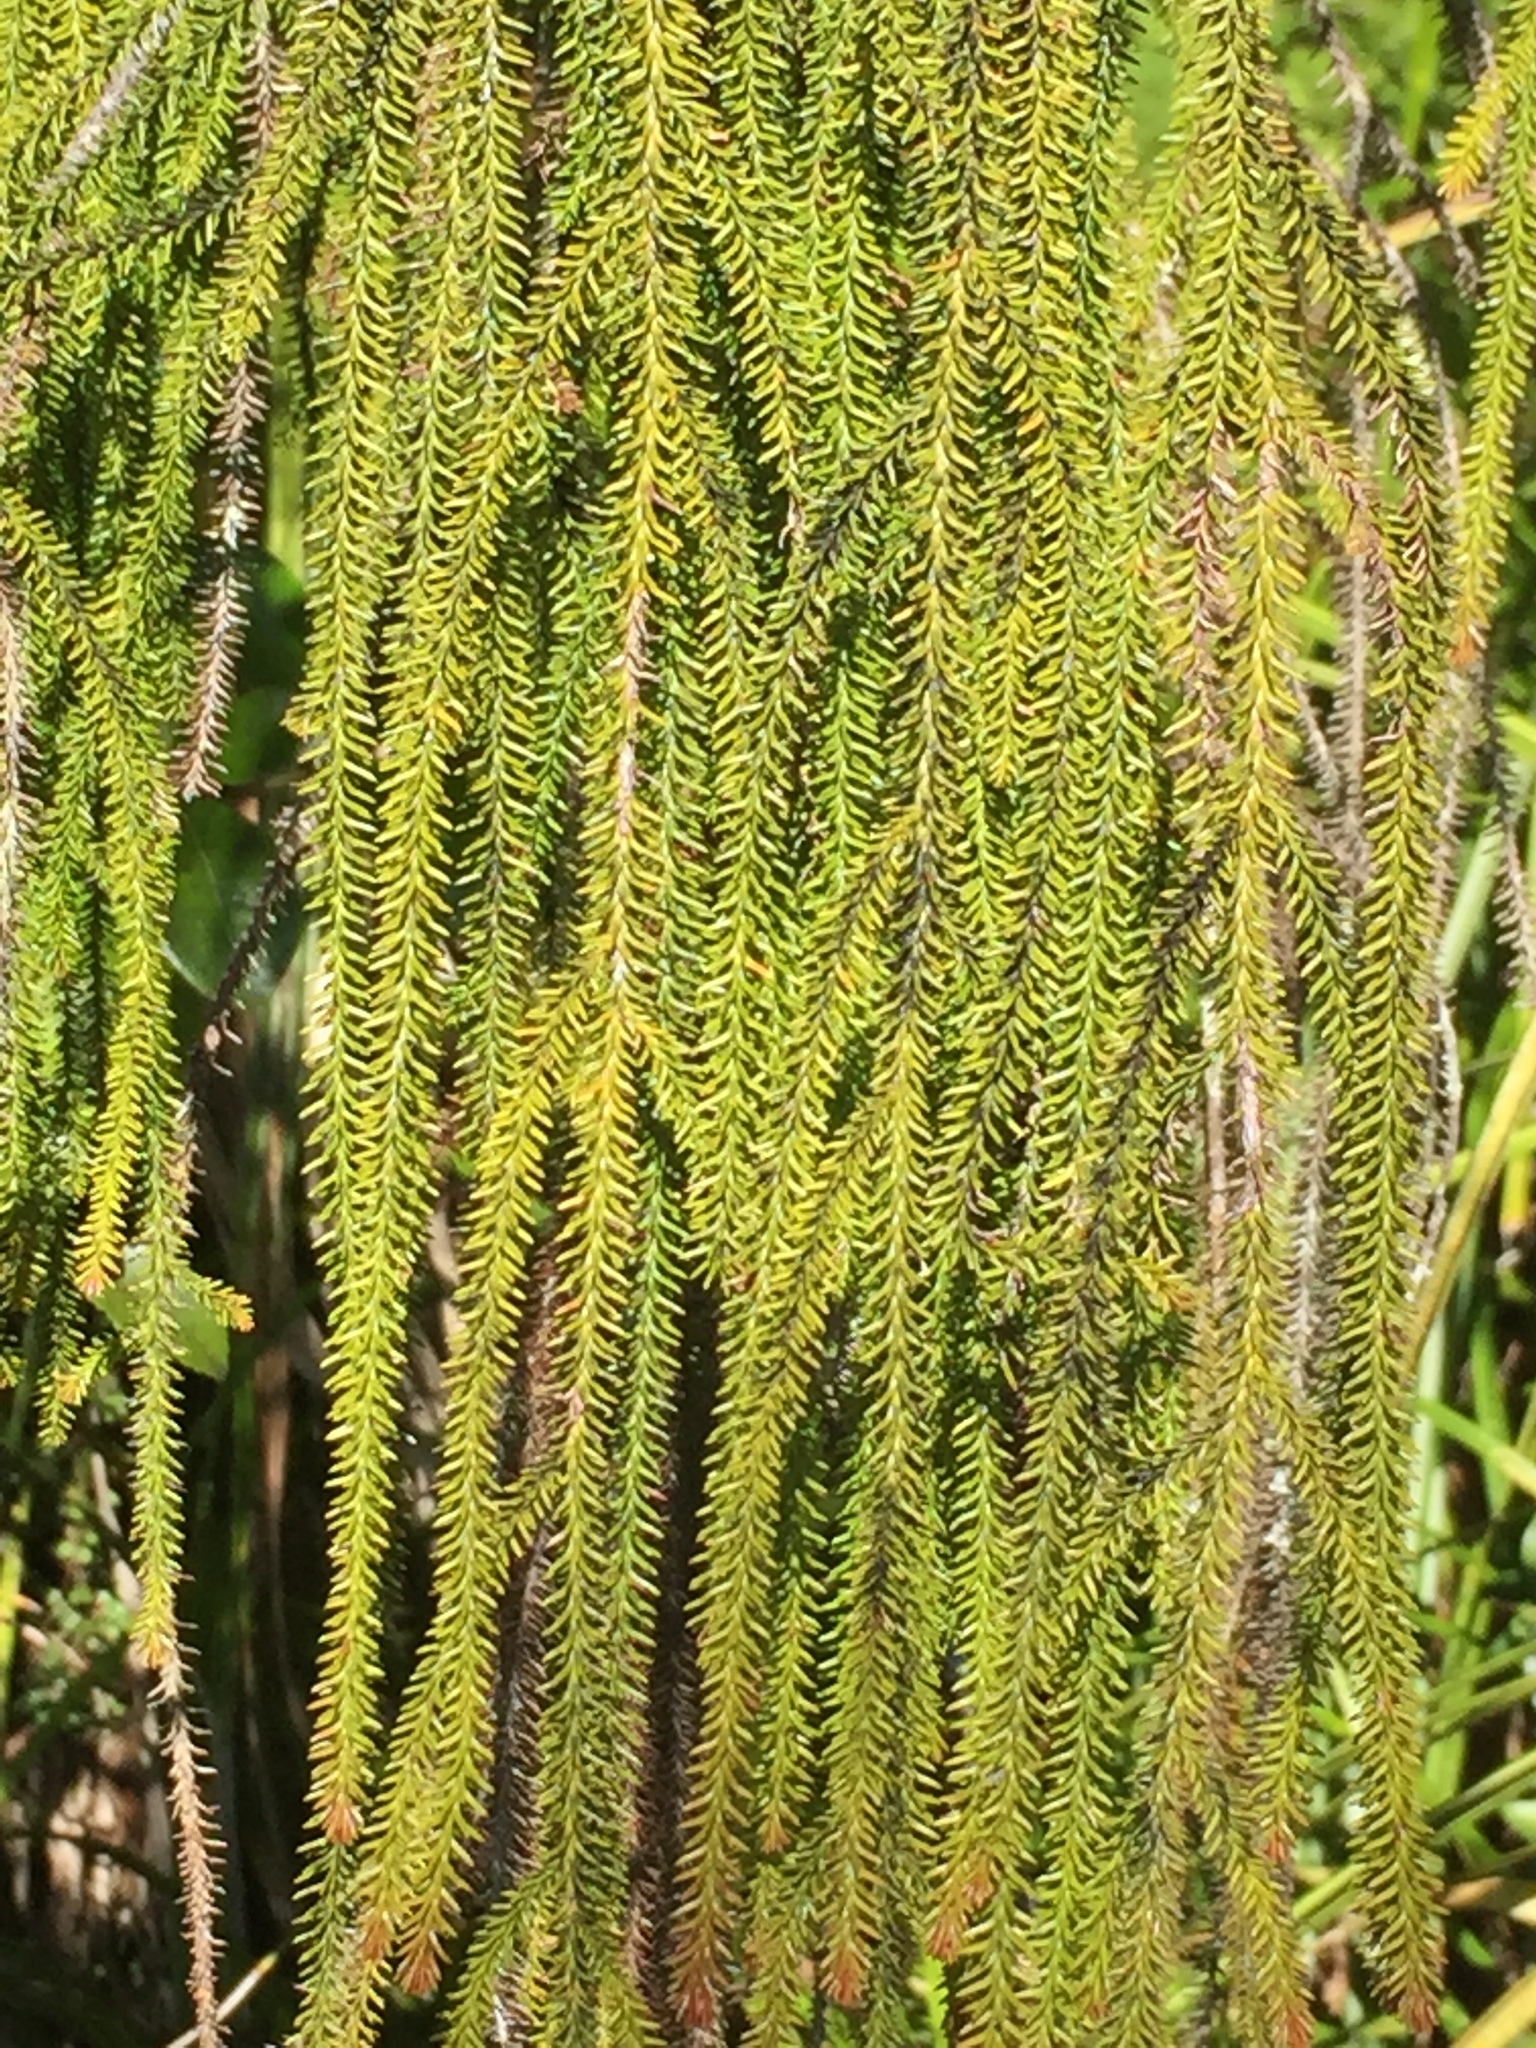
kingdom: Plantae
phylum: Tracheophyta
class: Pinopsida
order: Pinales
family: Podocarpaceae
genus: Dacrydium
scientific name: Dacrydium cupressinum
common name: Red pine
